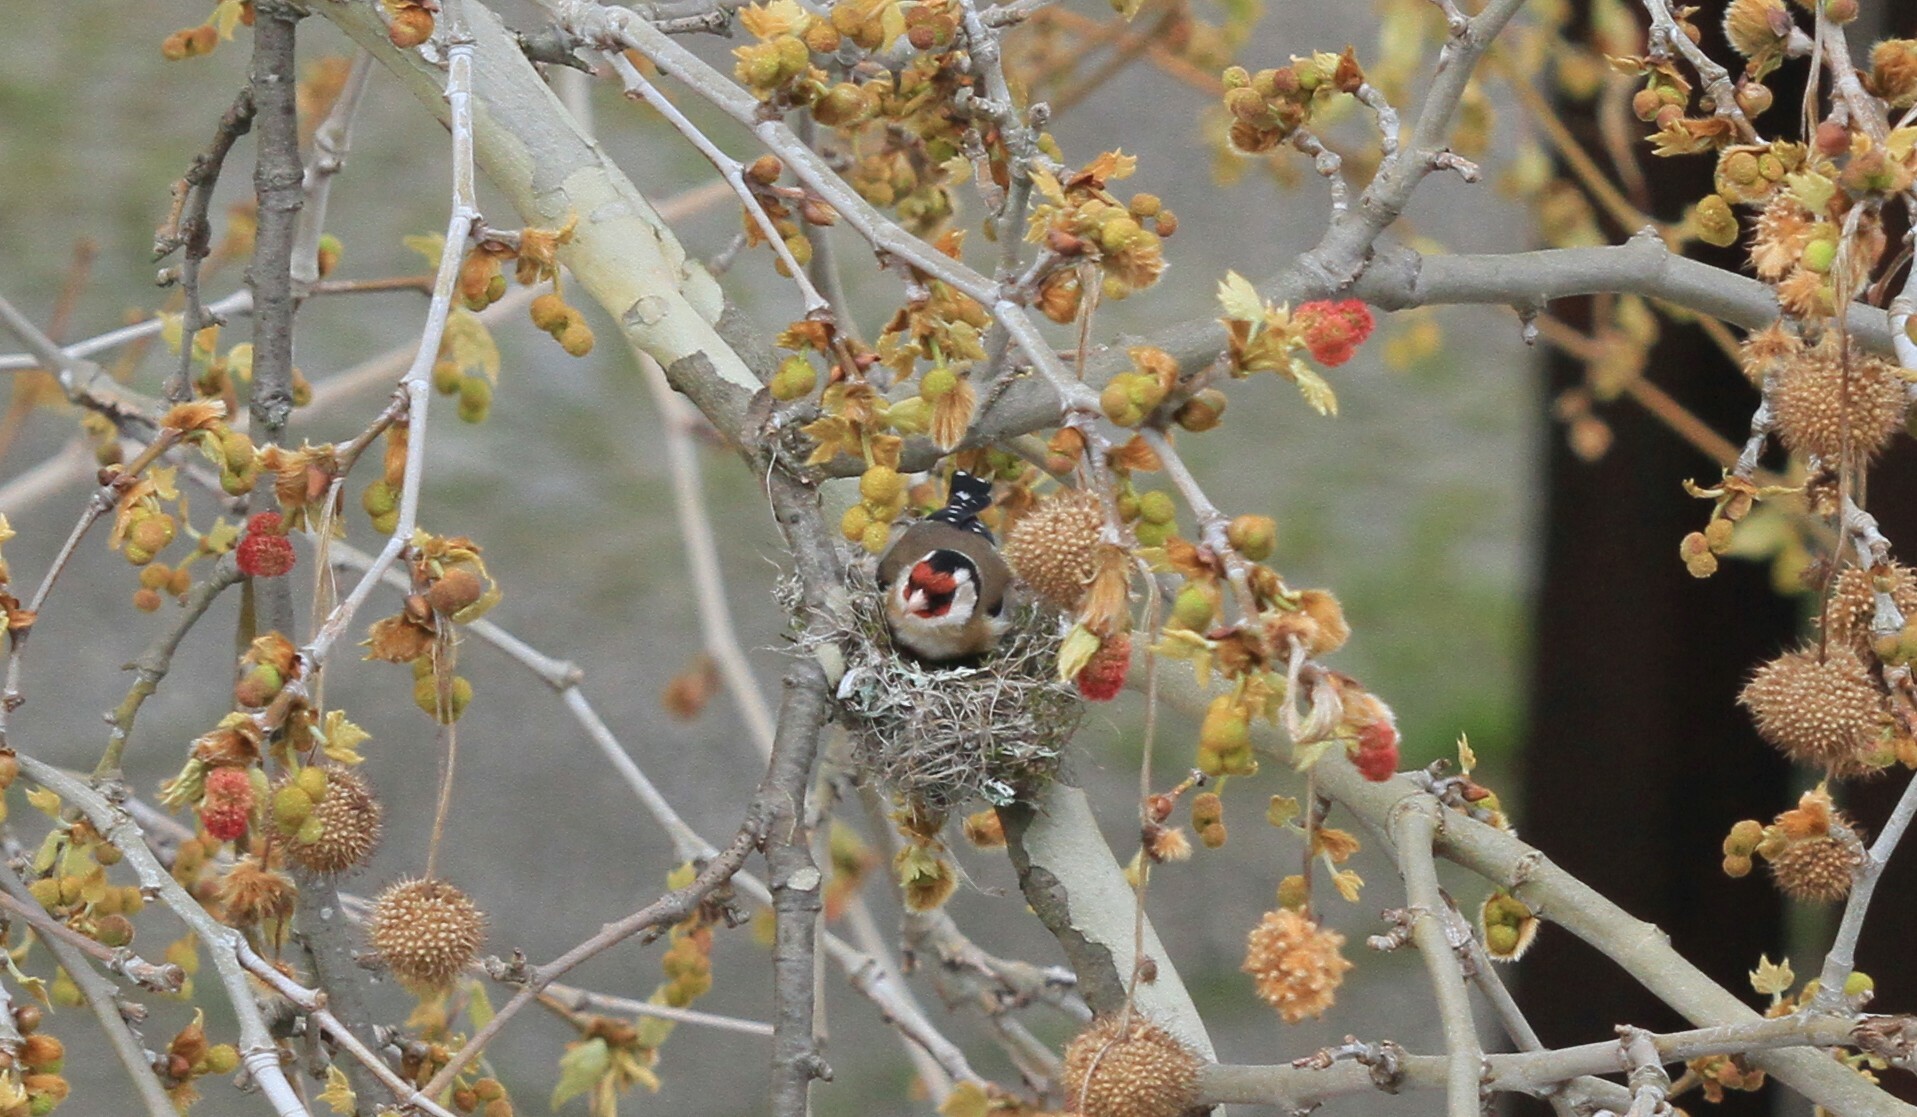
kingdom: Animalia
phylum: Chordata
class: Aves
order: Passeriformes
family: Fringillidae
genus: Carduelis
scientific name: Carduelis carduelis
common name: European goldfinch
